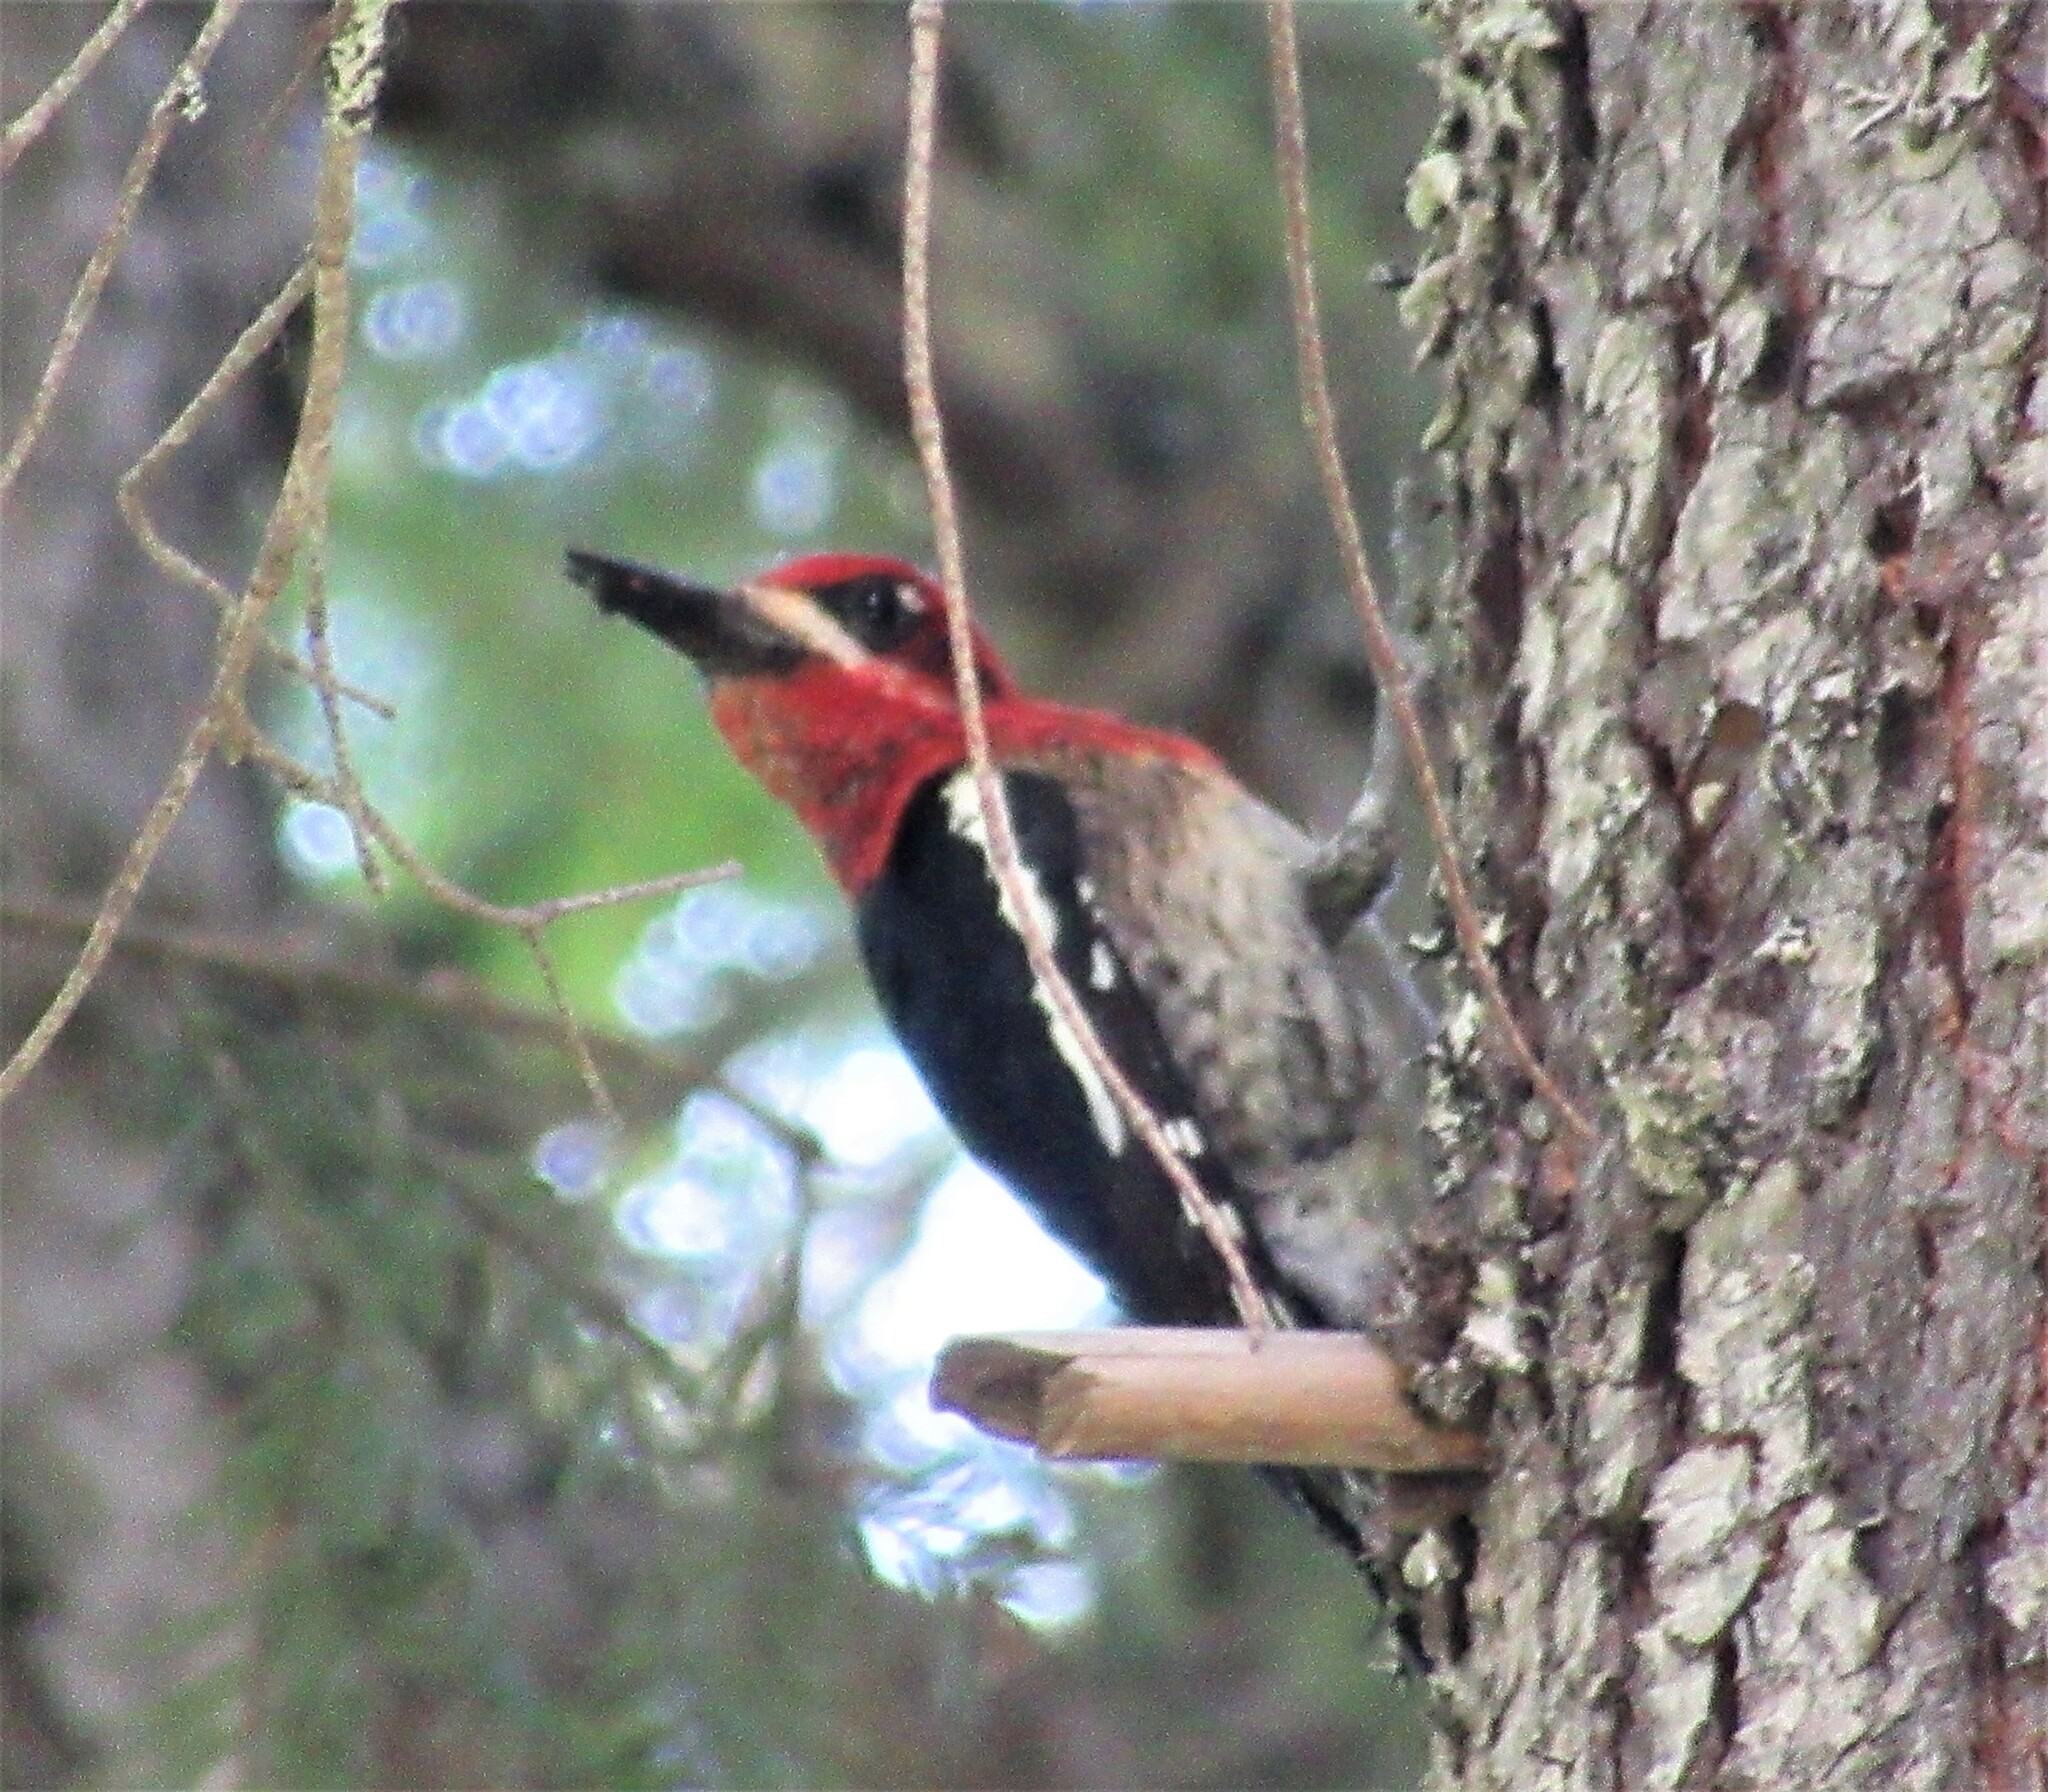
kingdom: Animalia
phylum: Chordata
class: Aves
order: Piciformes
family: Picidae
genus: Sphyrapicus
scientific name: Sphyrapicus ruber
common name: Red-breasted sapsucker
